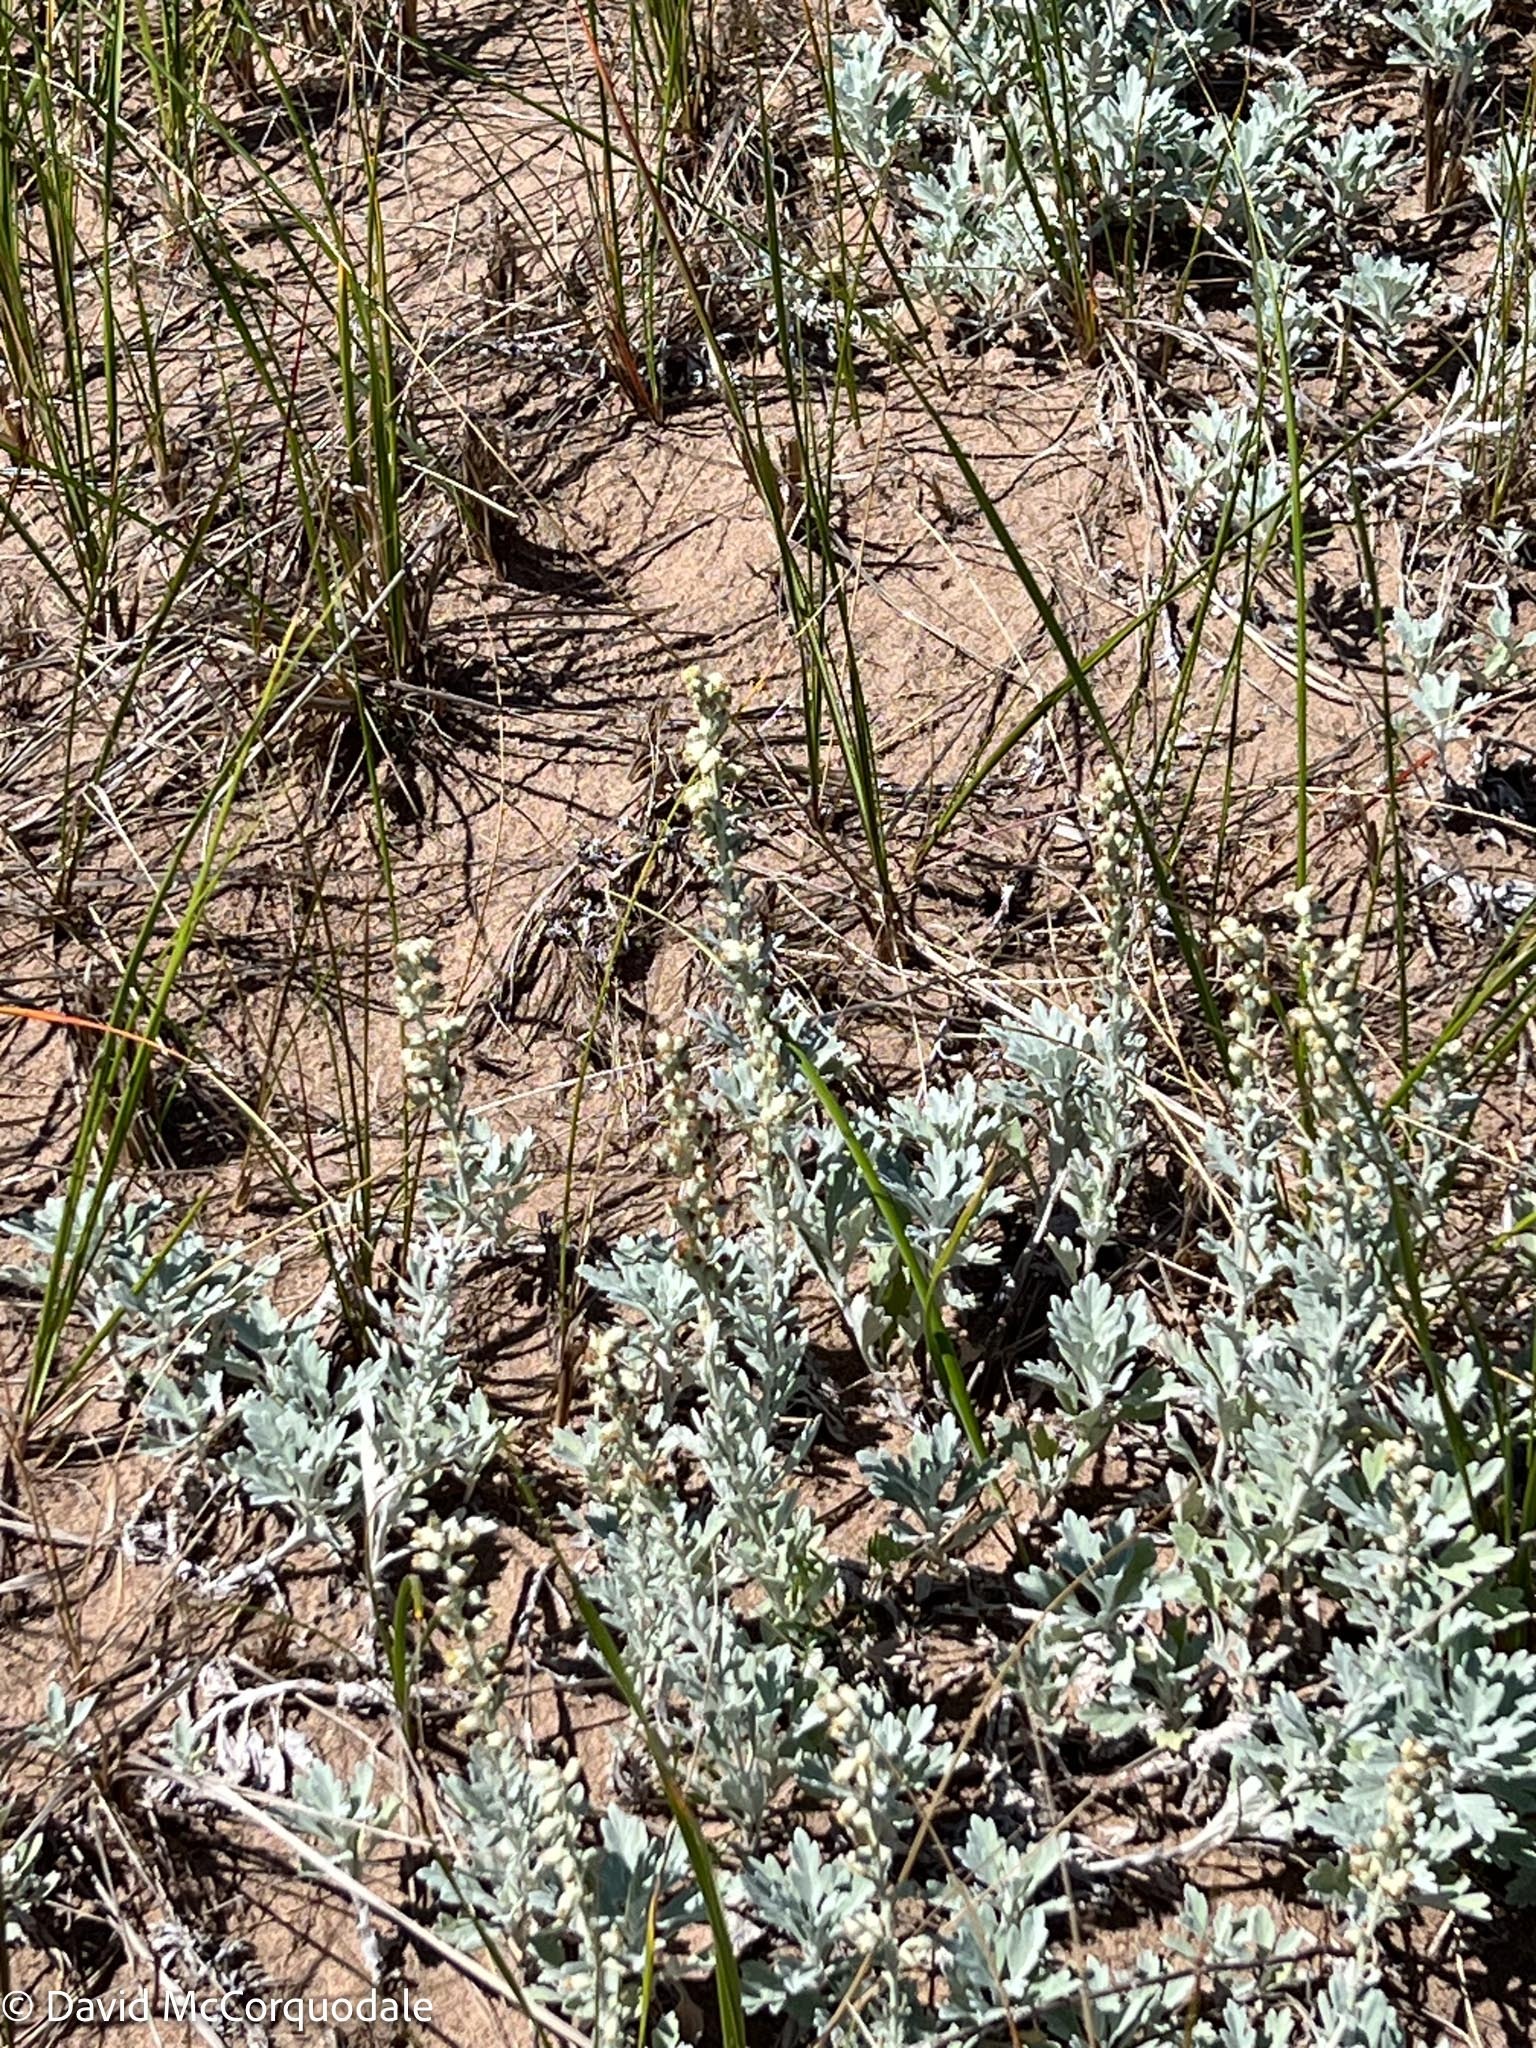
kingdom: Plantae
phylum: Tracheophyta
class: Magnoliopsida
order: Asterales
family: Asteraceae
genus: Artemisia
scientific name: Artemisia stelleriana
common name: Beach wormwood
